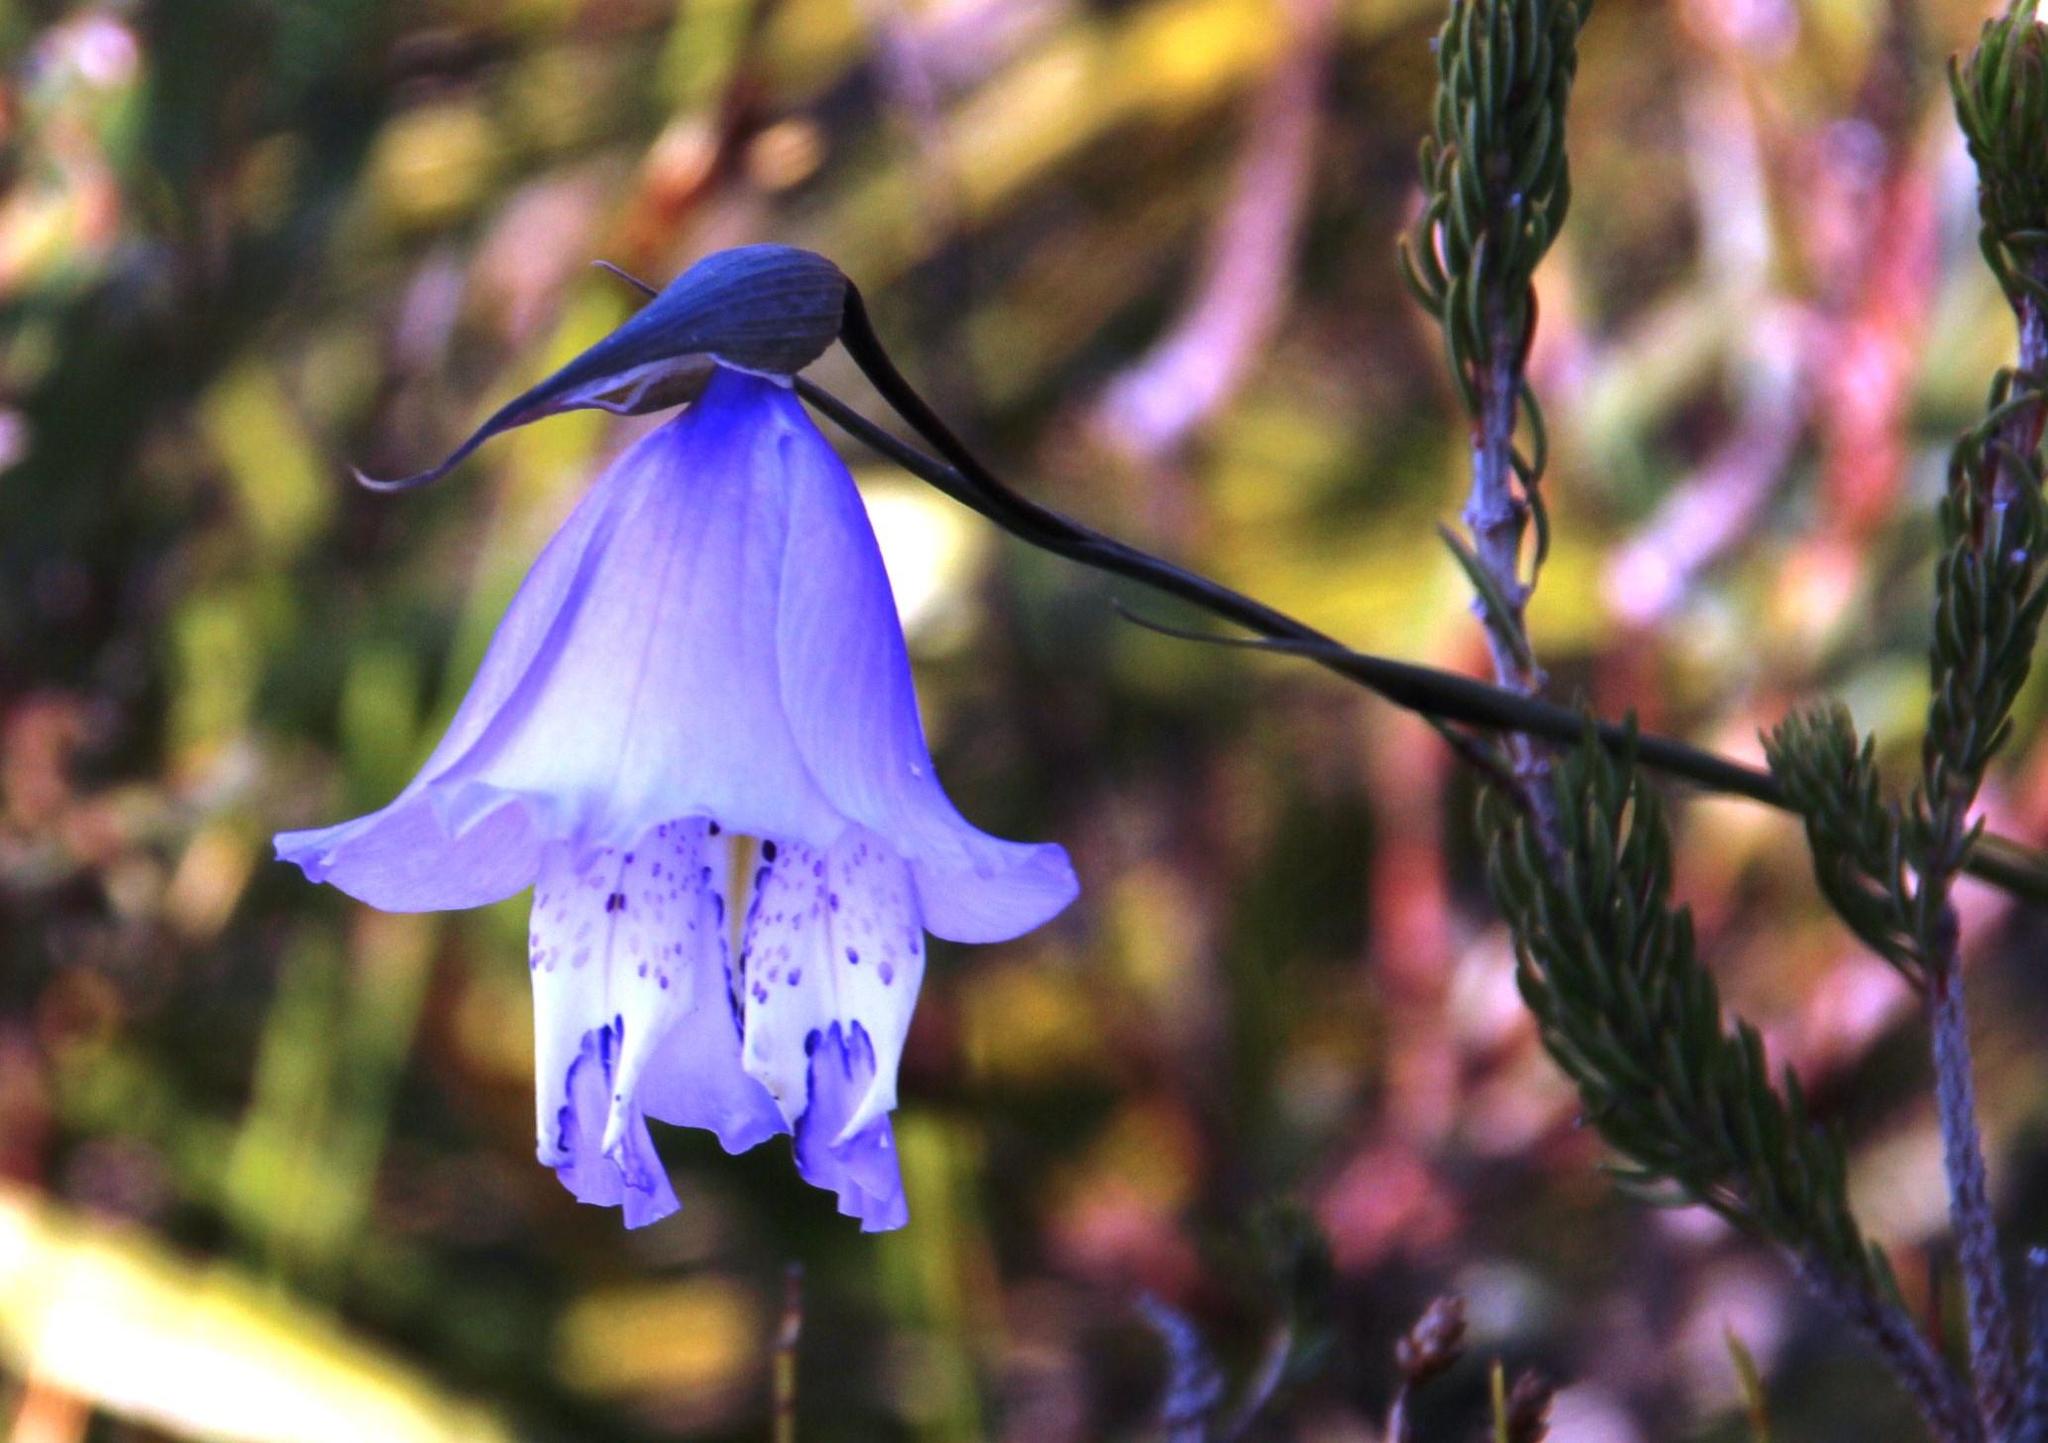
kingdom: Plantae
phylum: Tracheophyta
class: Liliopsida
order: Asparagales
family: Iridaceae
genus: Gladiolus
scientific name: Gladiolus bullatus
